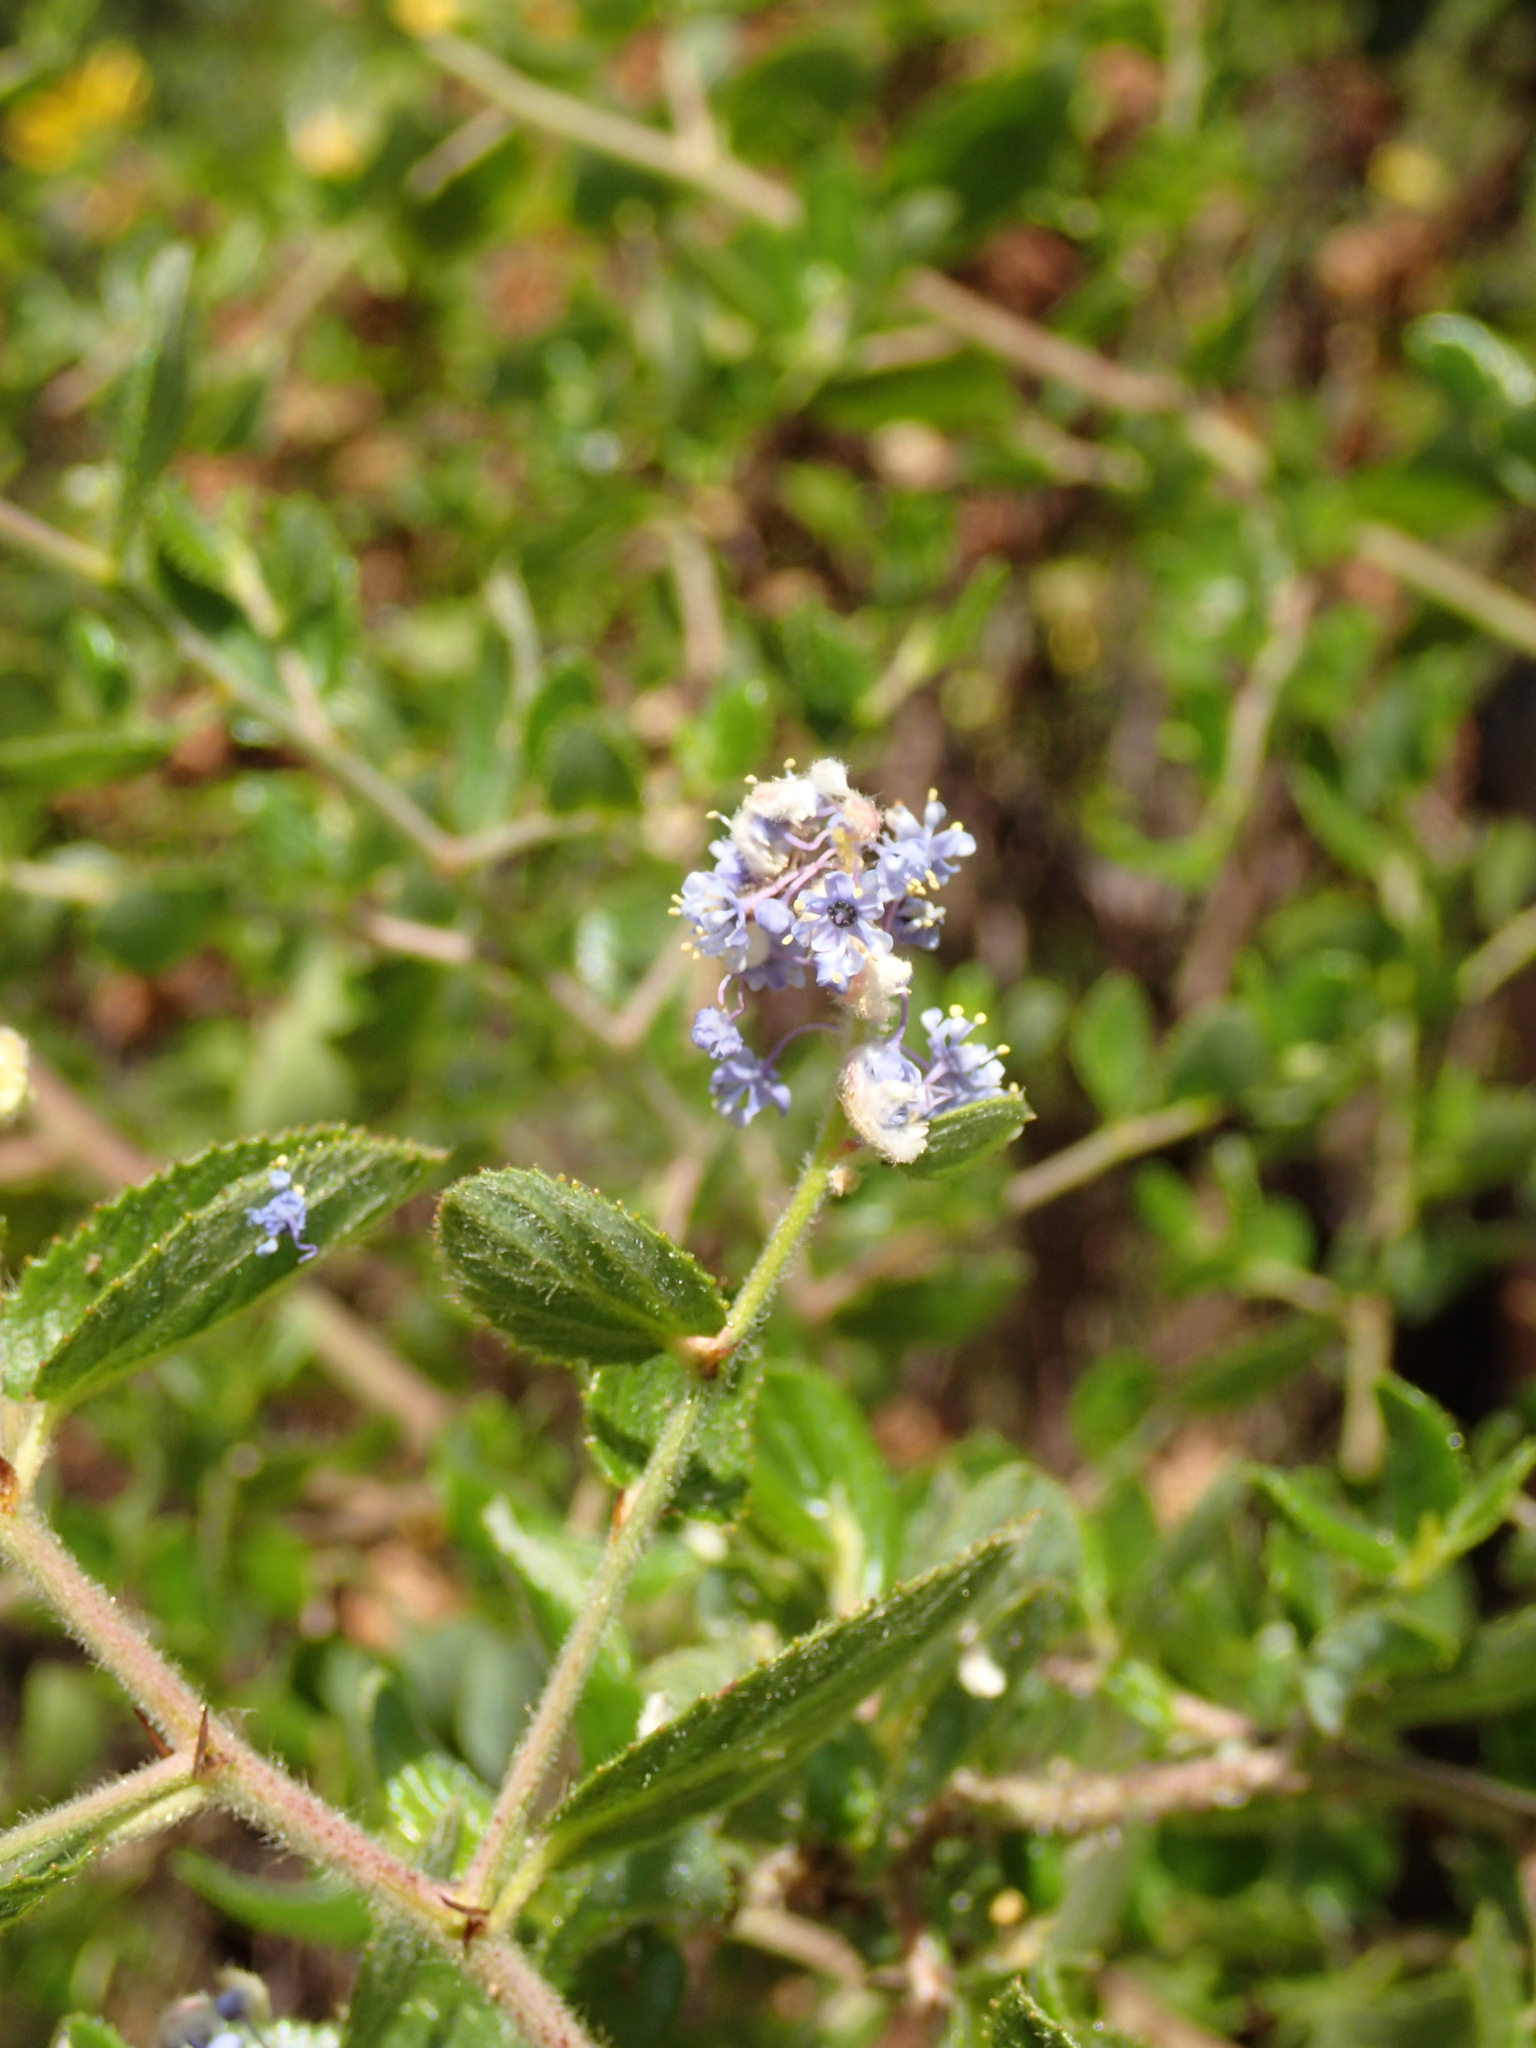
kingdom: Plantae
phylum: Tracheophyta
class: Magnoliopsida
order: Rosales
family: Rhamnaceae
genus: Ceanothus
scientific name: Ceanothus oliganthus
